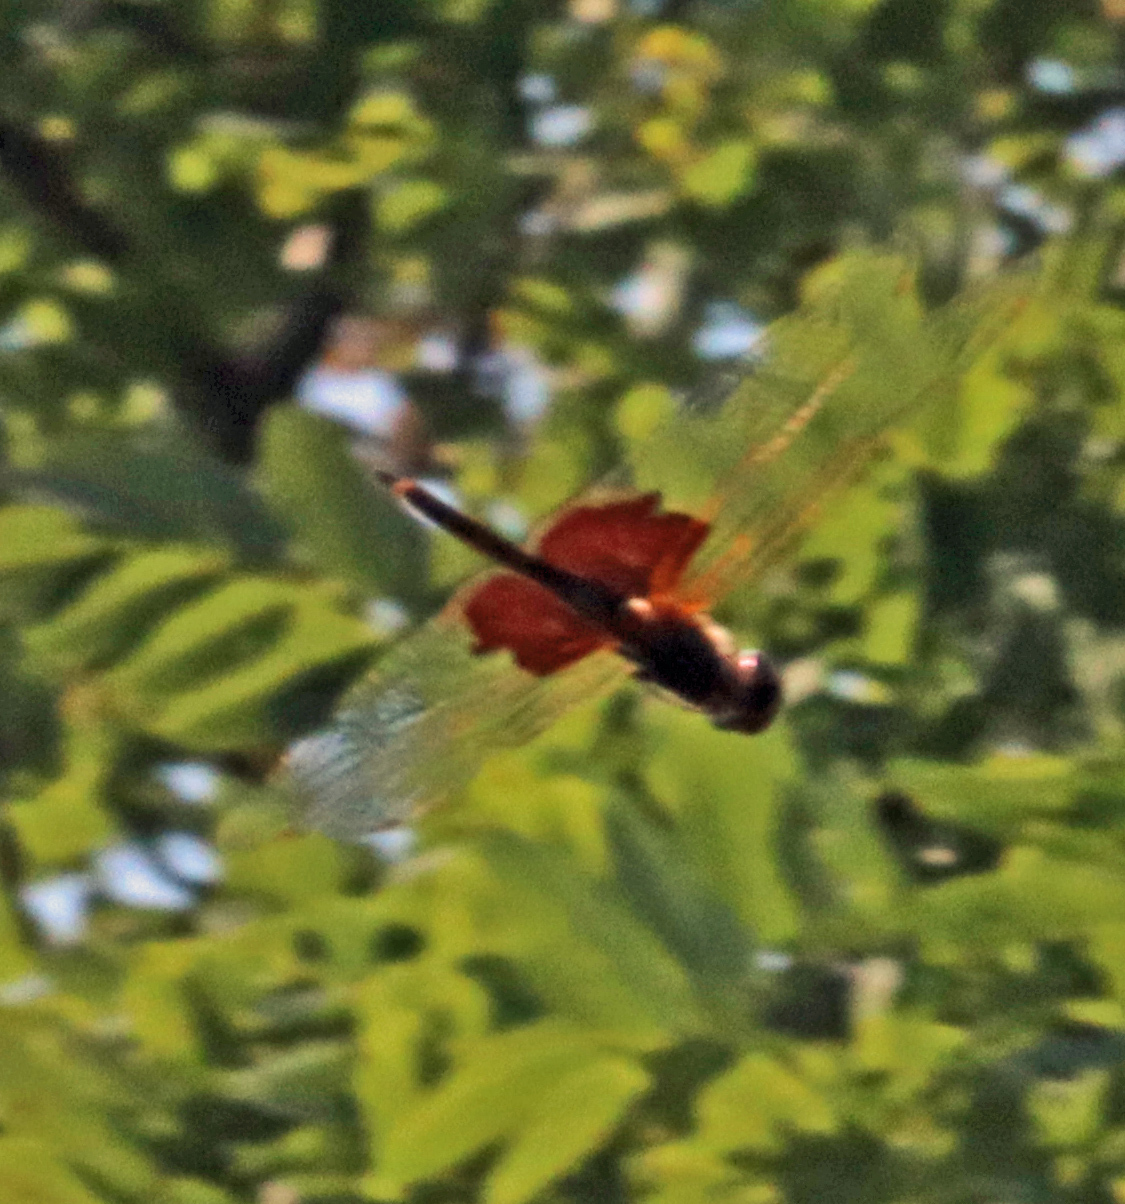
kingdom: Animalia
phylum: Arthropoda
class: Insecta
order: Odonata
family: Libellulidae
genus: Tramea
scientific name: Tramea carolina
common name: Carolina saddlebags
